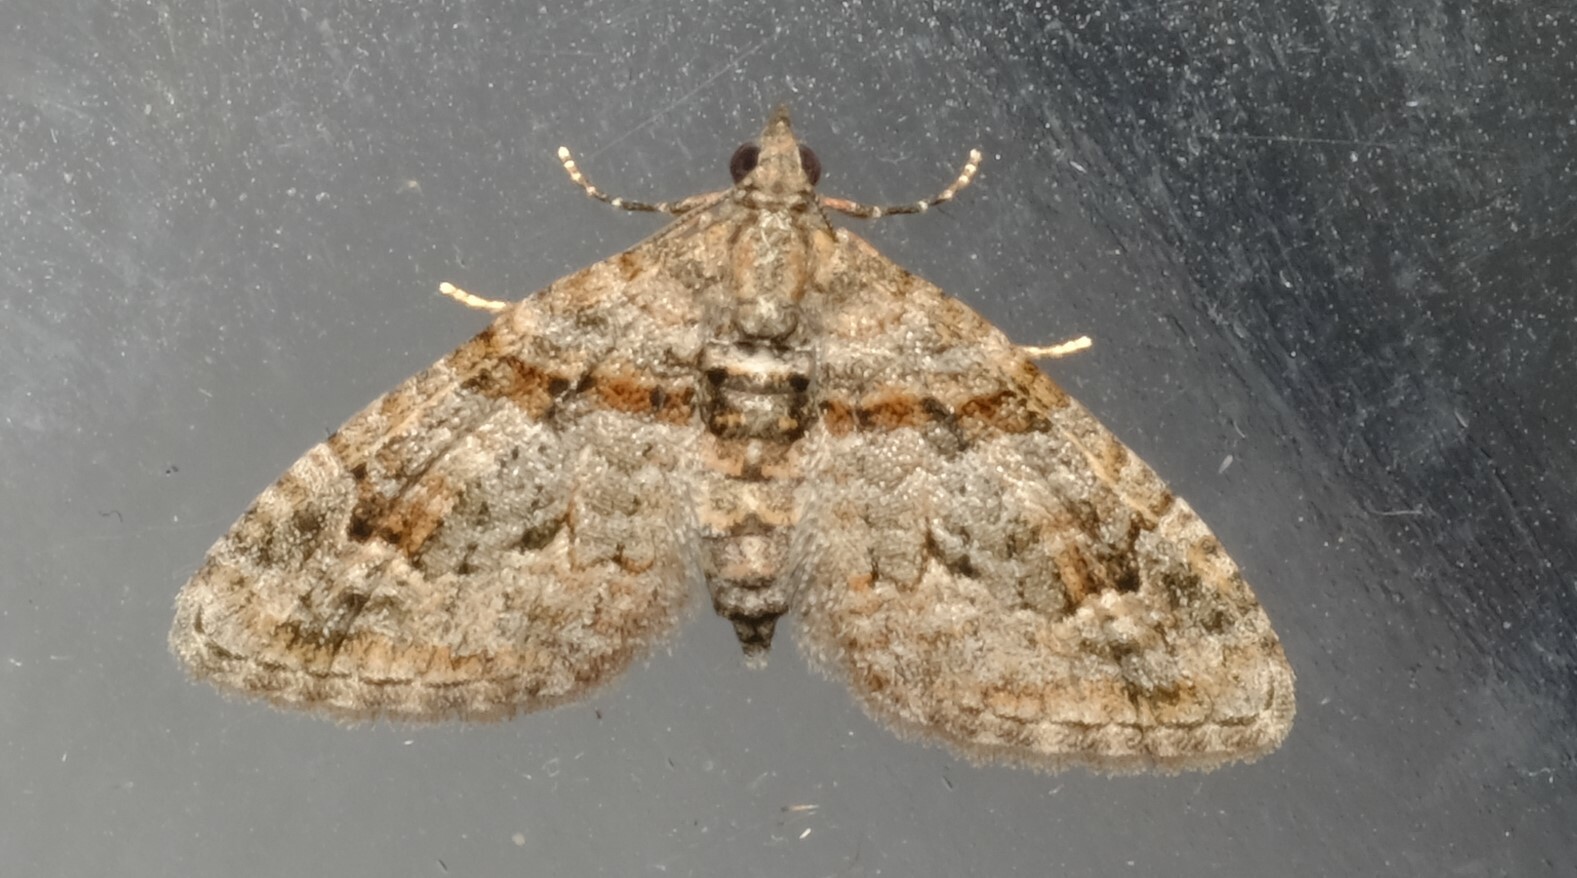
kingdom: Animalia
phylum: Arthropoda
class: Insecta
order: Lepidoptera
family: Geometridae
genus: Phrissogonus
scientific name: Phrissogonus laticostata
